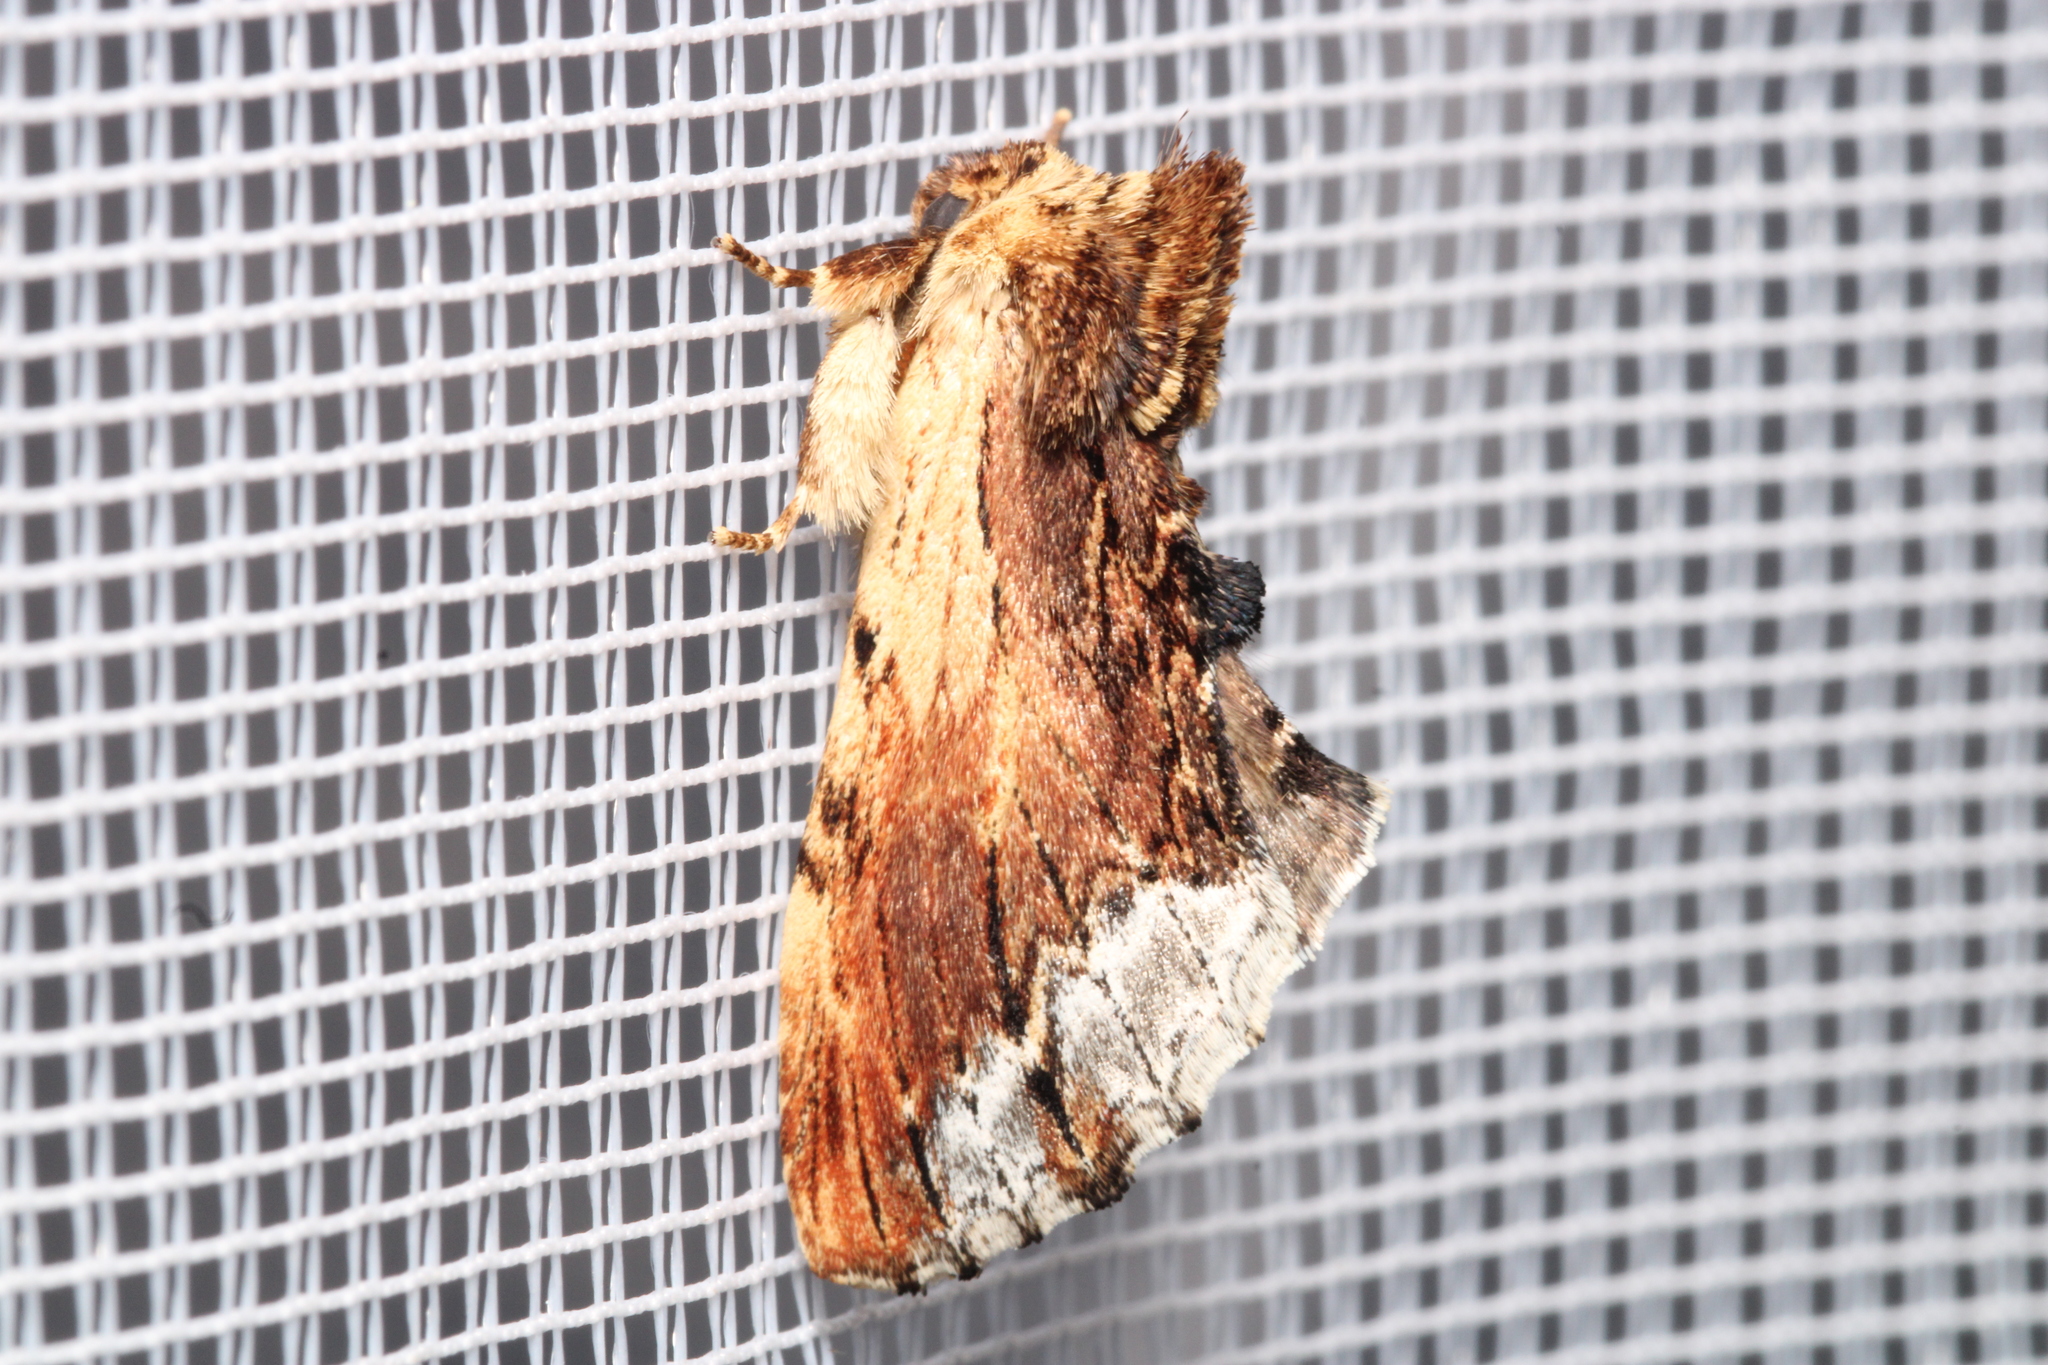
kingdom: Animalia
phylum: Arthropoda
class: Insecta
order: Lepidoptera
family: Notodontidae
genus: Ptilodon
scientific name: Ptilodon cucullina
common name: Maple prominent
